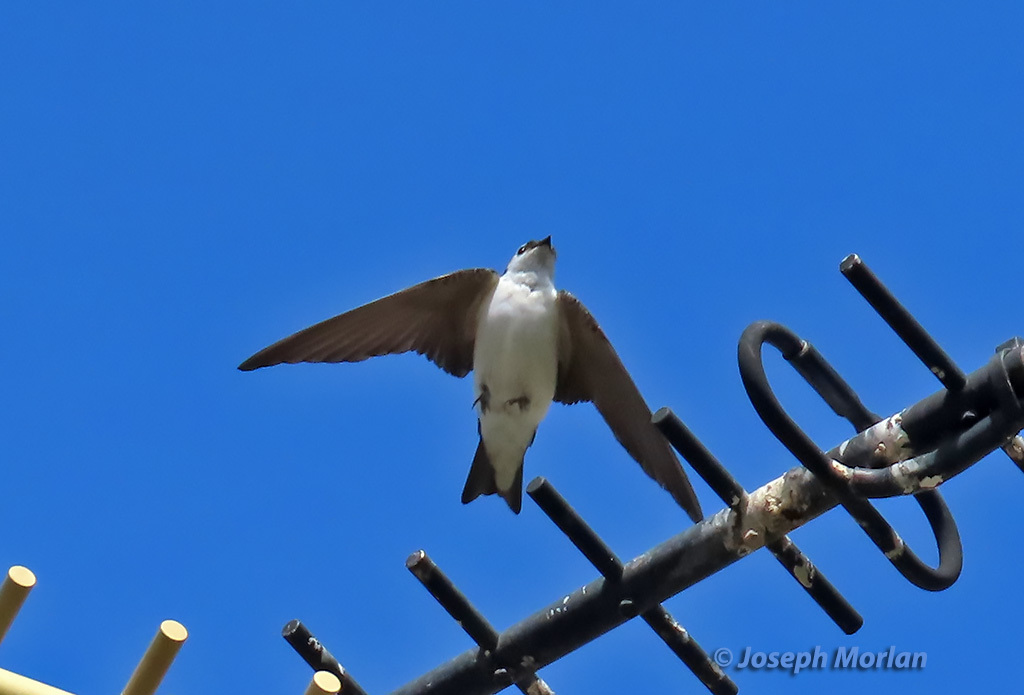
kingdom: Animalia
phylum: Chordata
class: Aves
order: Passeriformes
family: Hirundinidae
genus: Tachycineta
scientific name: Tachycineta thalassina
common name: Violet-green swallow
